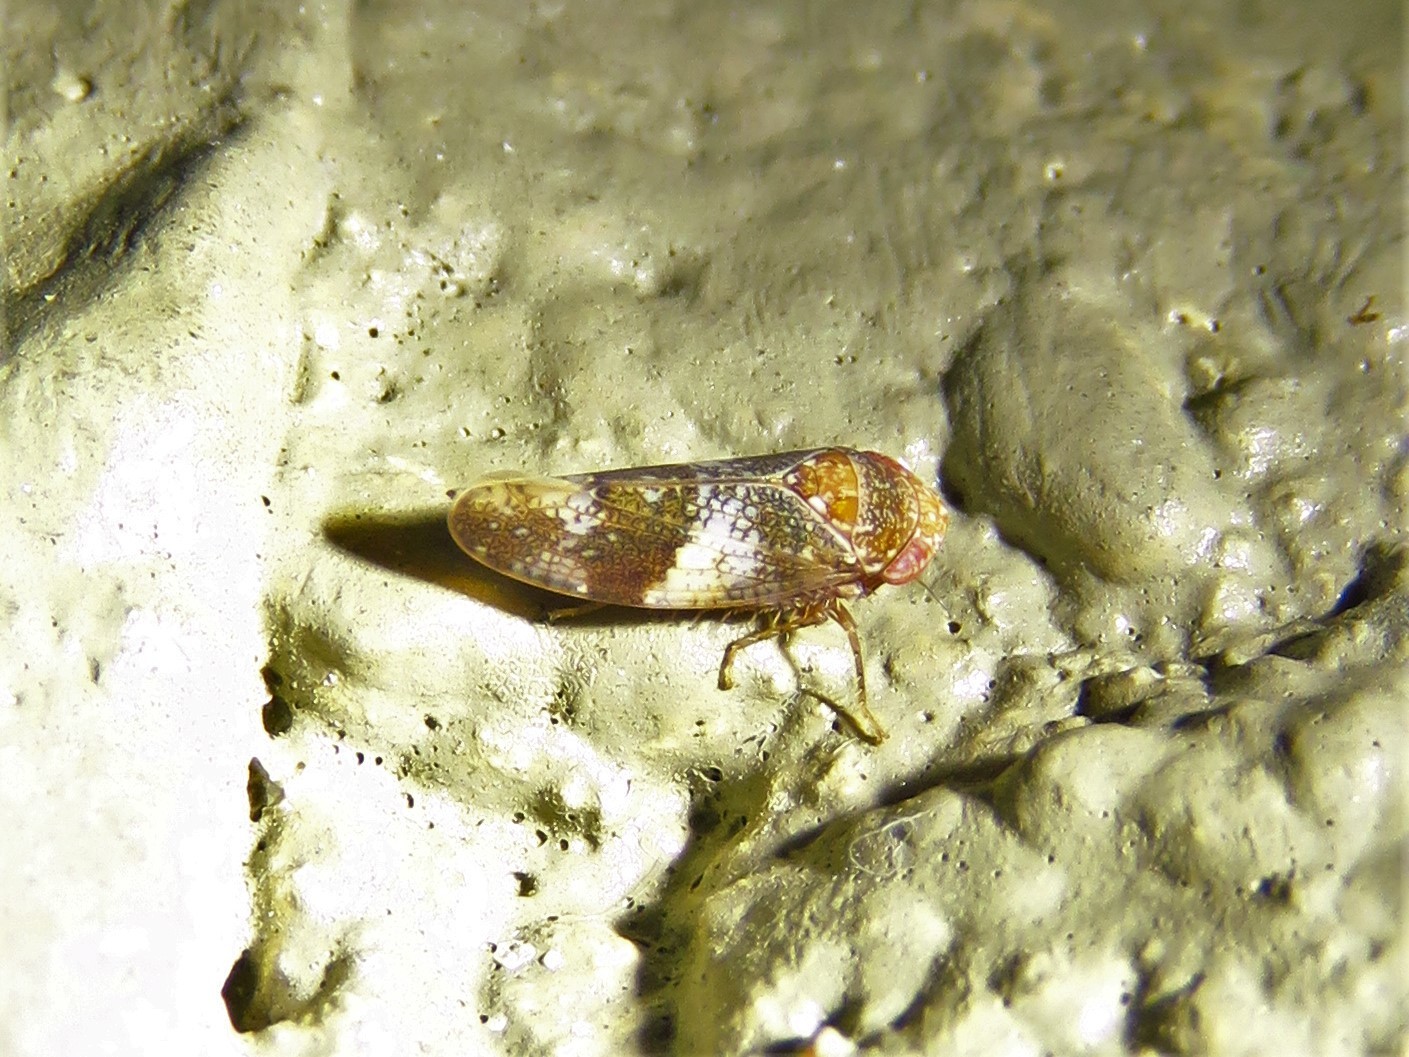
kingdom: Animalia
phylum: Arthropoda
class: Insecta
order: Hemiptera
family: Cicadellidae
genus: Norvellina
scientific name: Norvellina helenae
